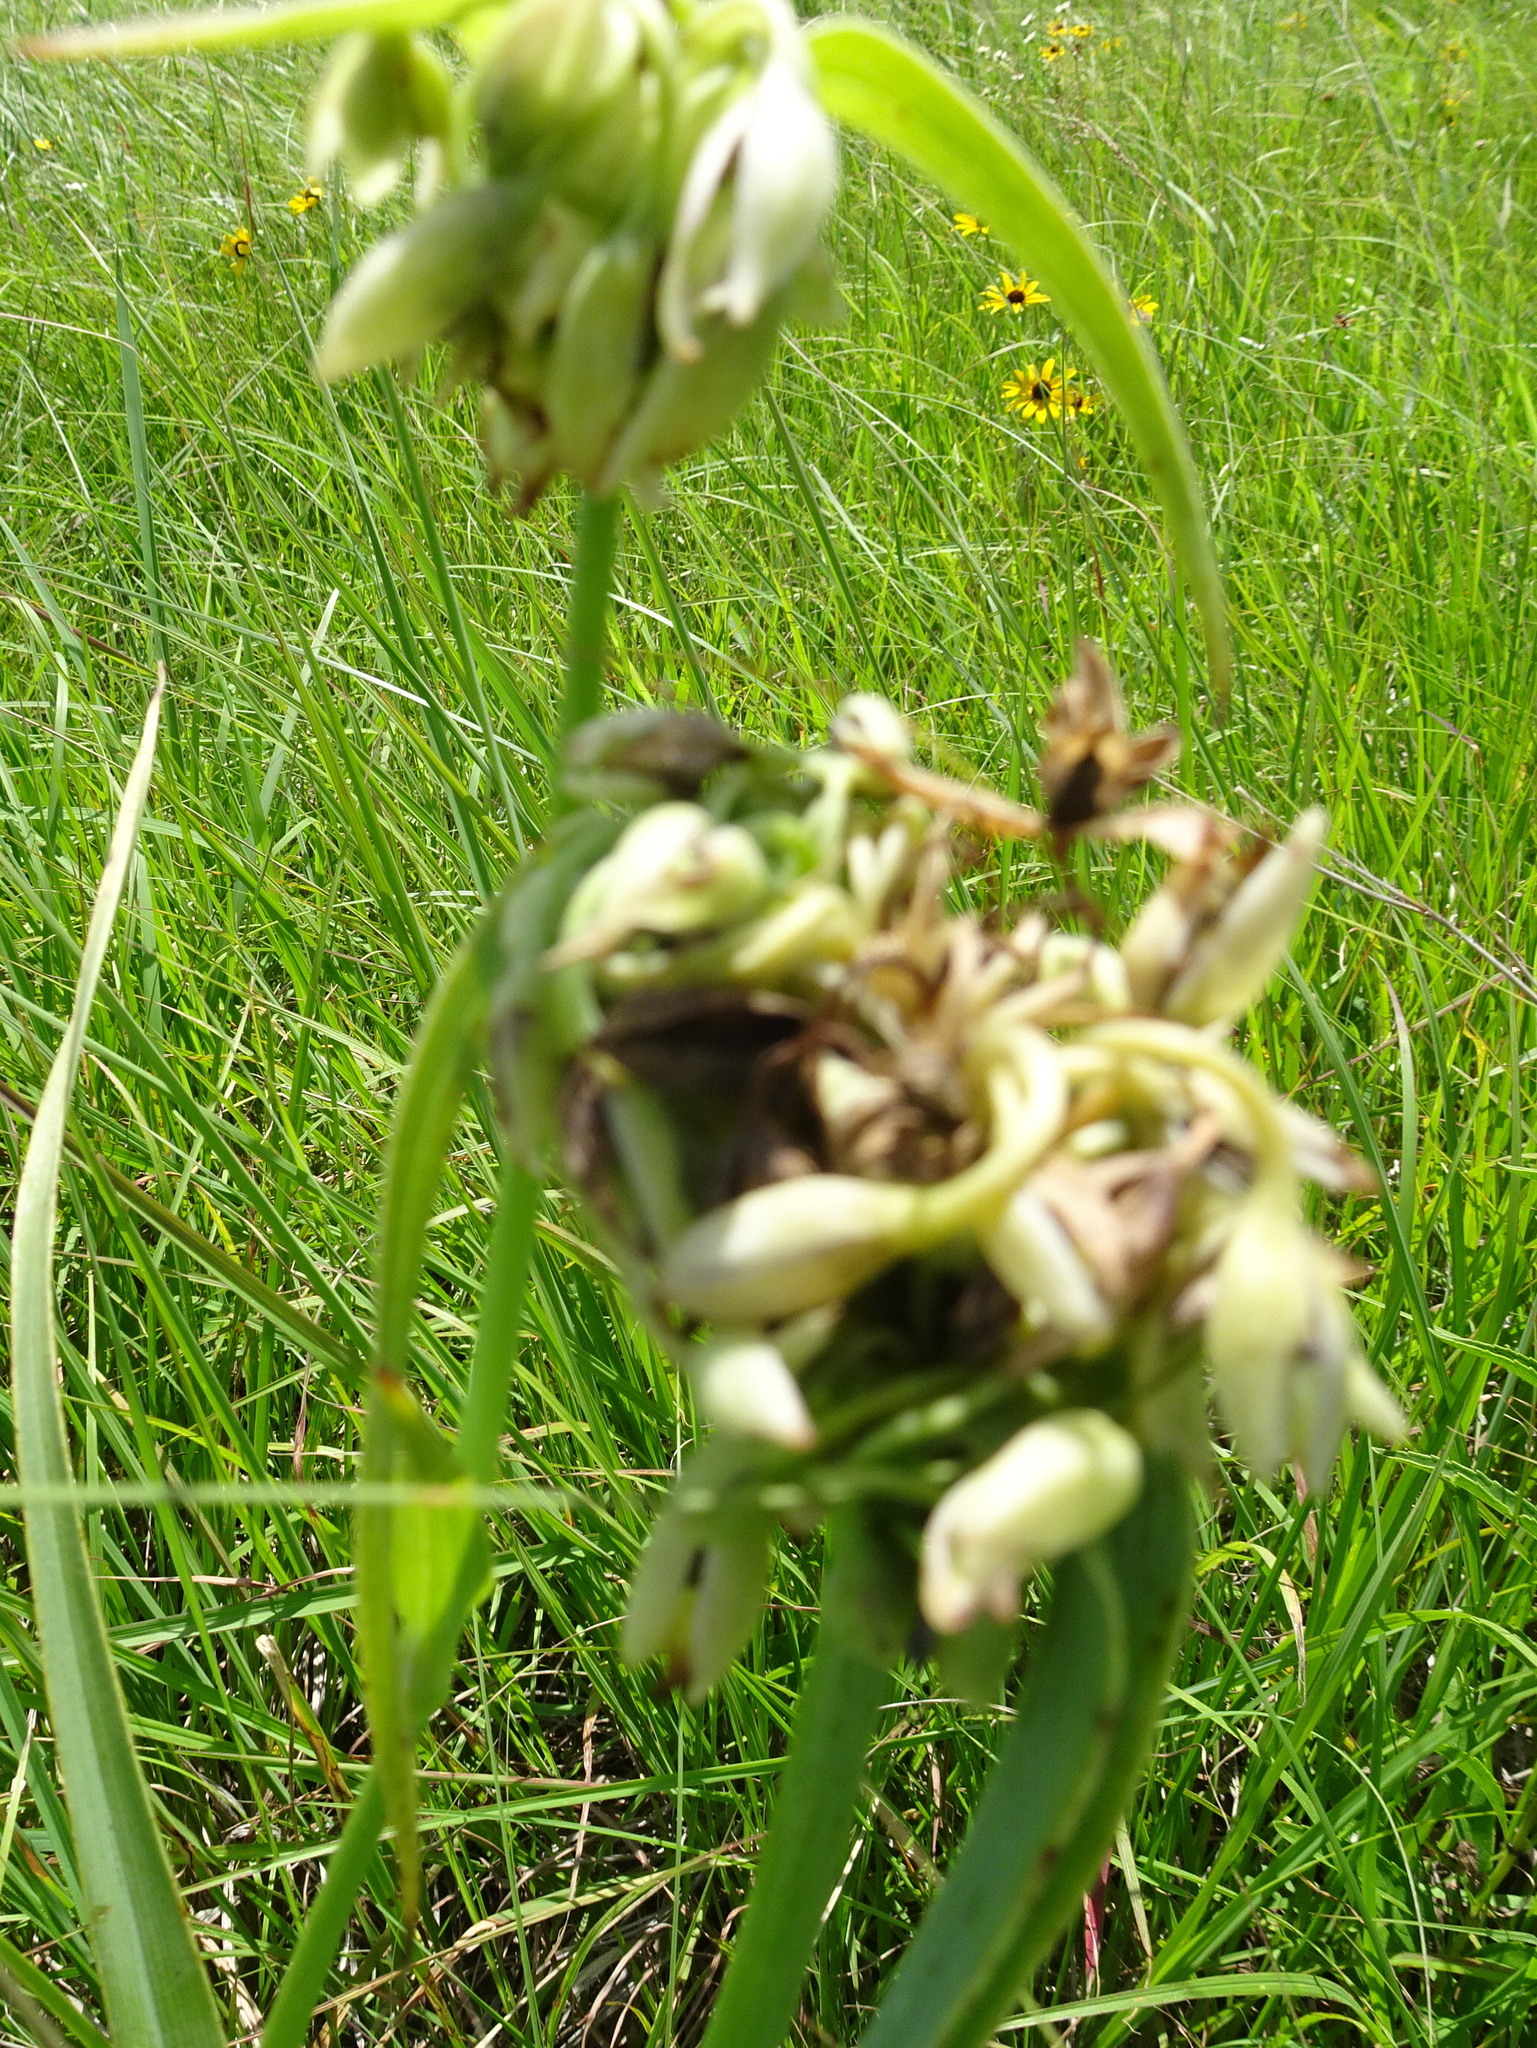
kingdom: Plantae
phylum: Tracheophyta
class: Liliopsida
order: Commelinales
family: Commelinaceae
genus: Tradescantia
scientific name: Tradescantia ohiensis
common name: Ohio spiderwort
